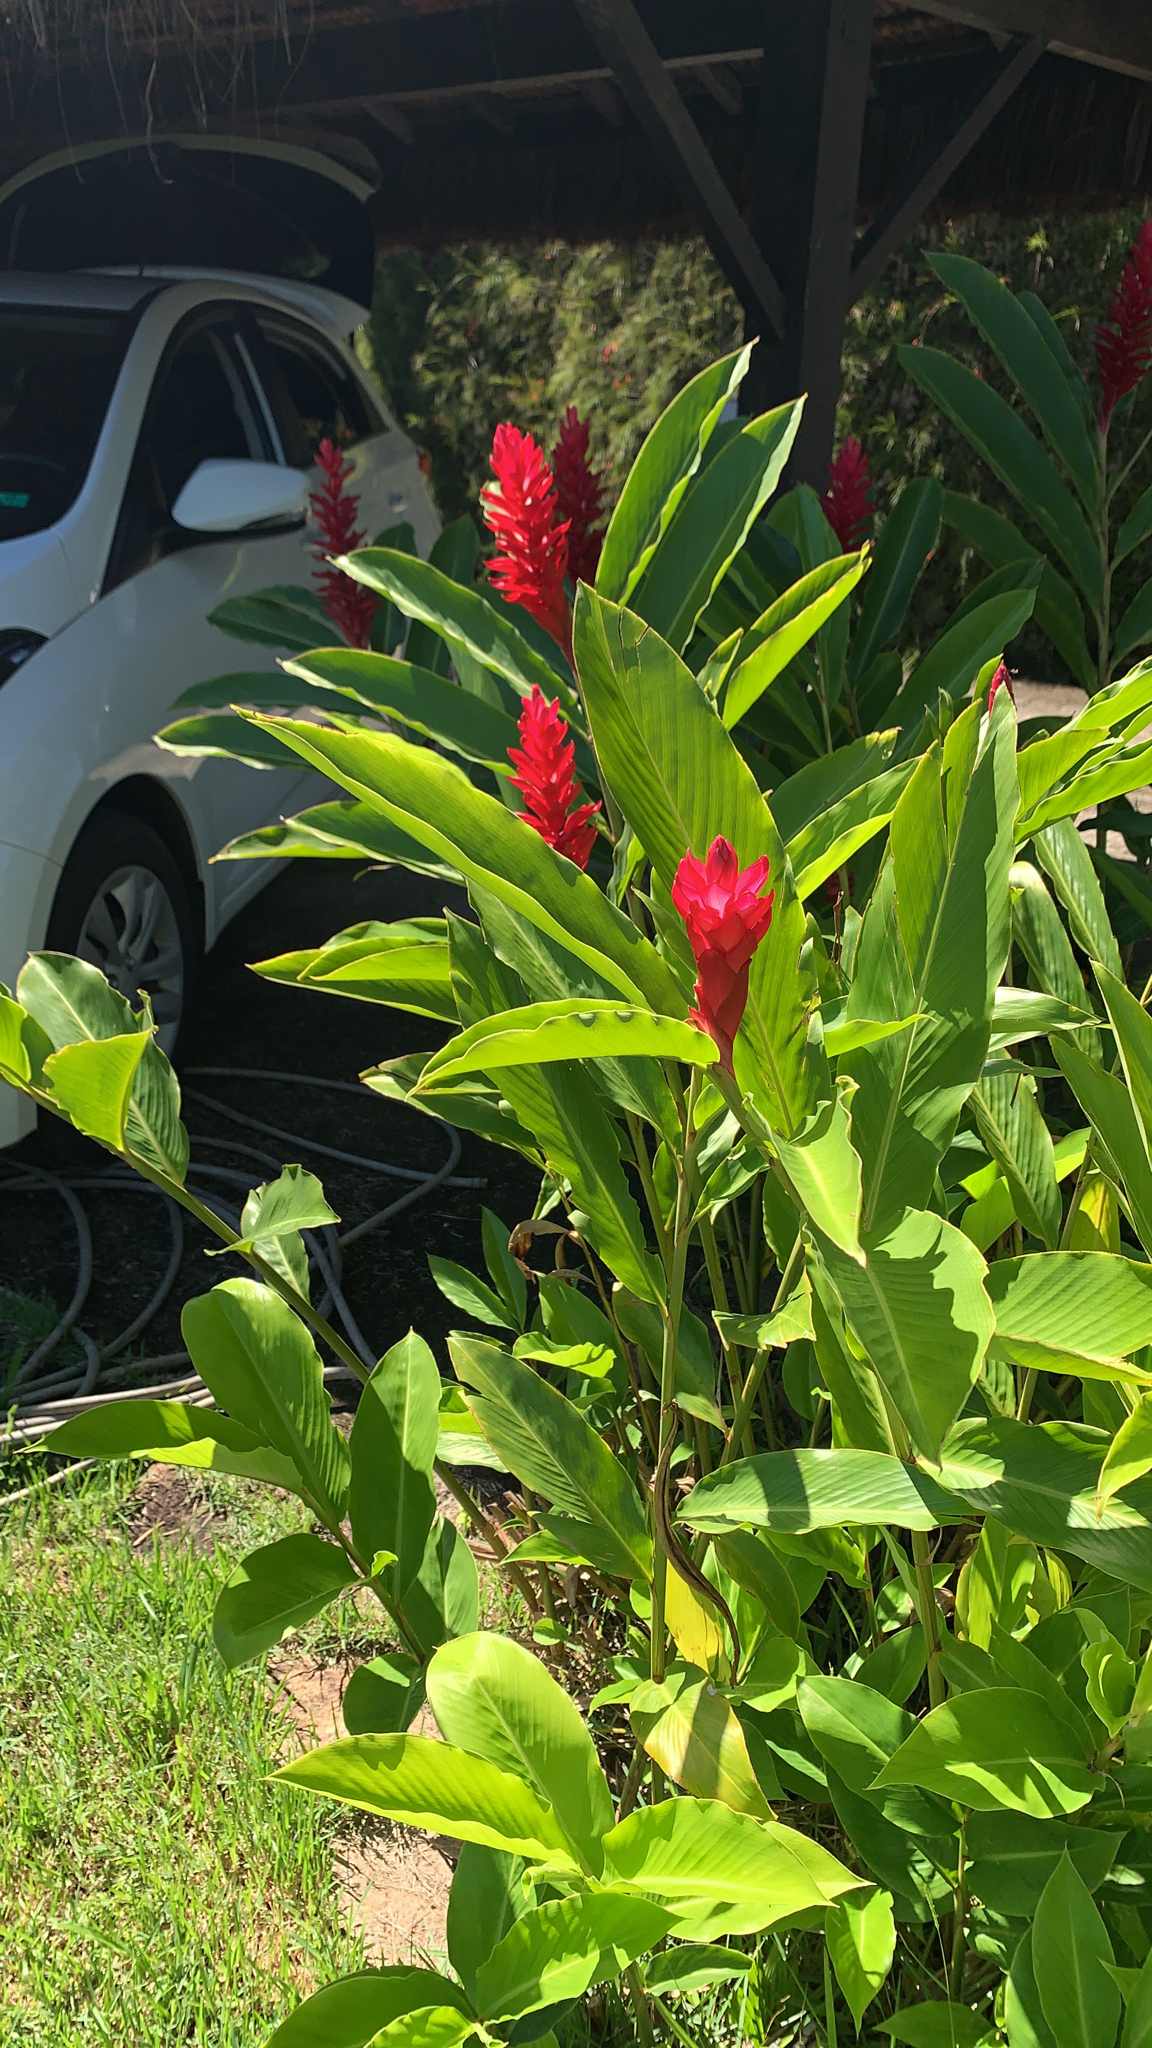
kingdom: Plantae
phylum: Tracheophyta
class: Liliopsida
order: Zingiberales
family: Zingiberaceae
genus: Alpinia
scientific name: Alpinia purpurata
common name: Red ginger
